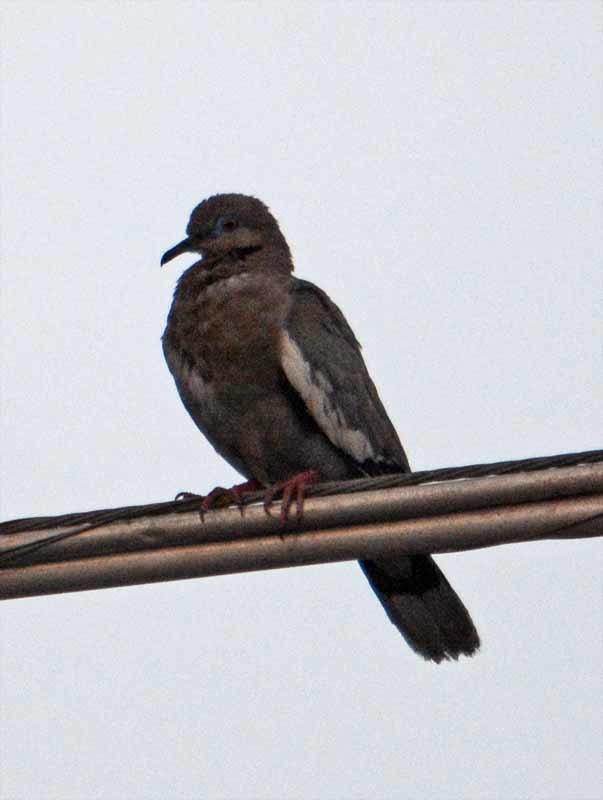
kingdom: Animalia
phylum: Chordata
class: Aves
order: Columbiformes
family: Columbidae
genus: Zenaida
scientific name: Zenaida asiatica
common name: White-winged dove
